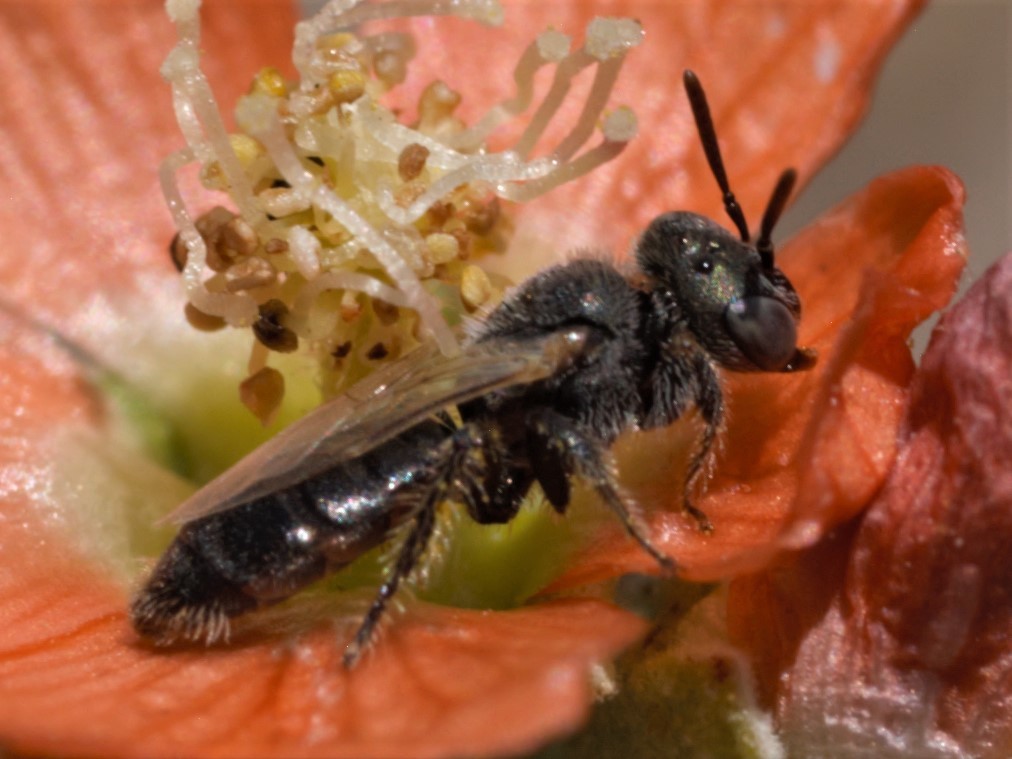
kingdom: Animalia
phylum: Arthropoda
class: Insecta
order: Hymenoptera
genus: Macroteropsis
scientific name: Macroteropsis
